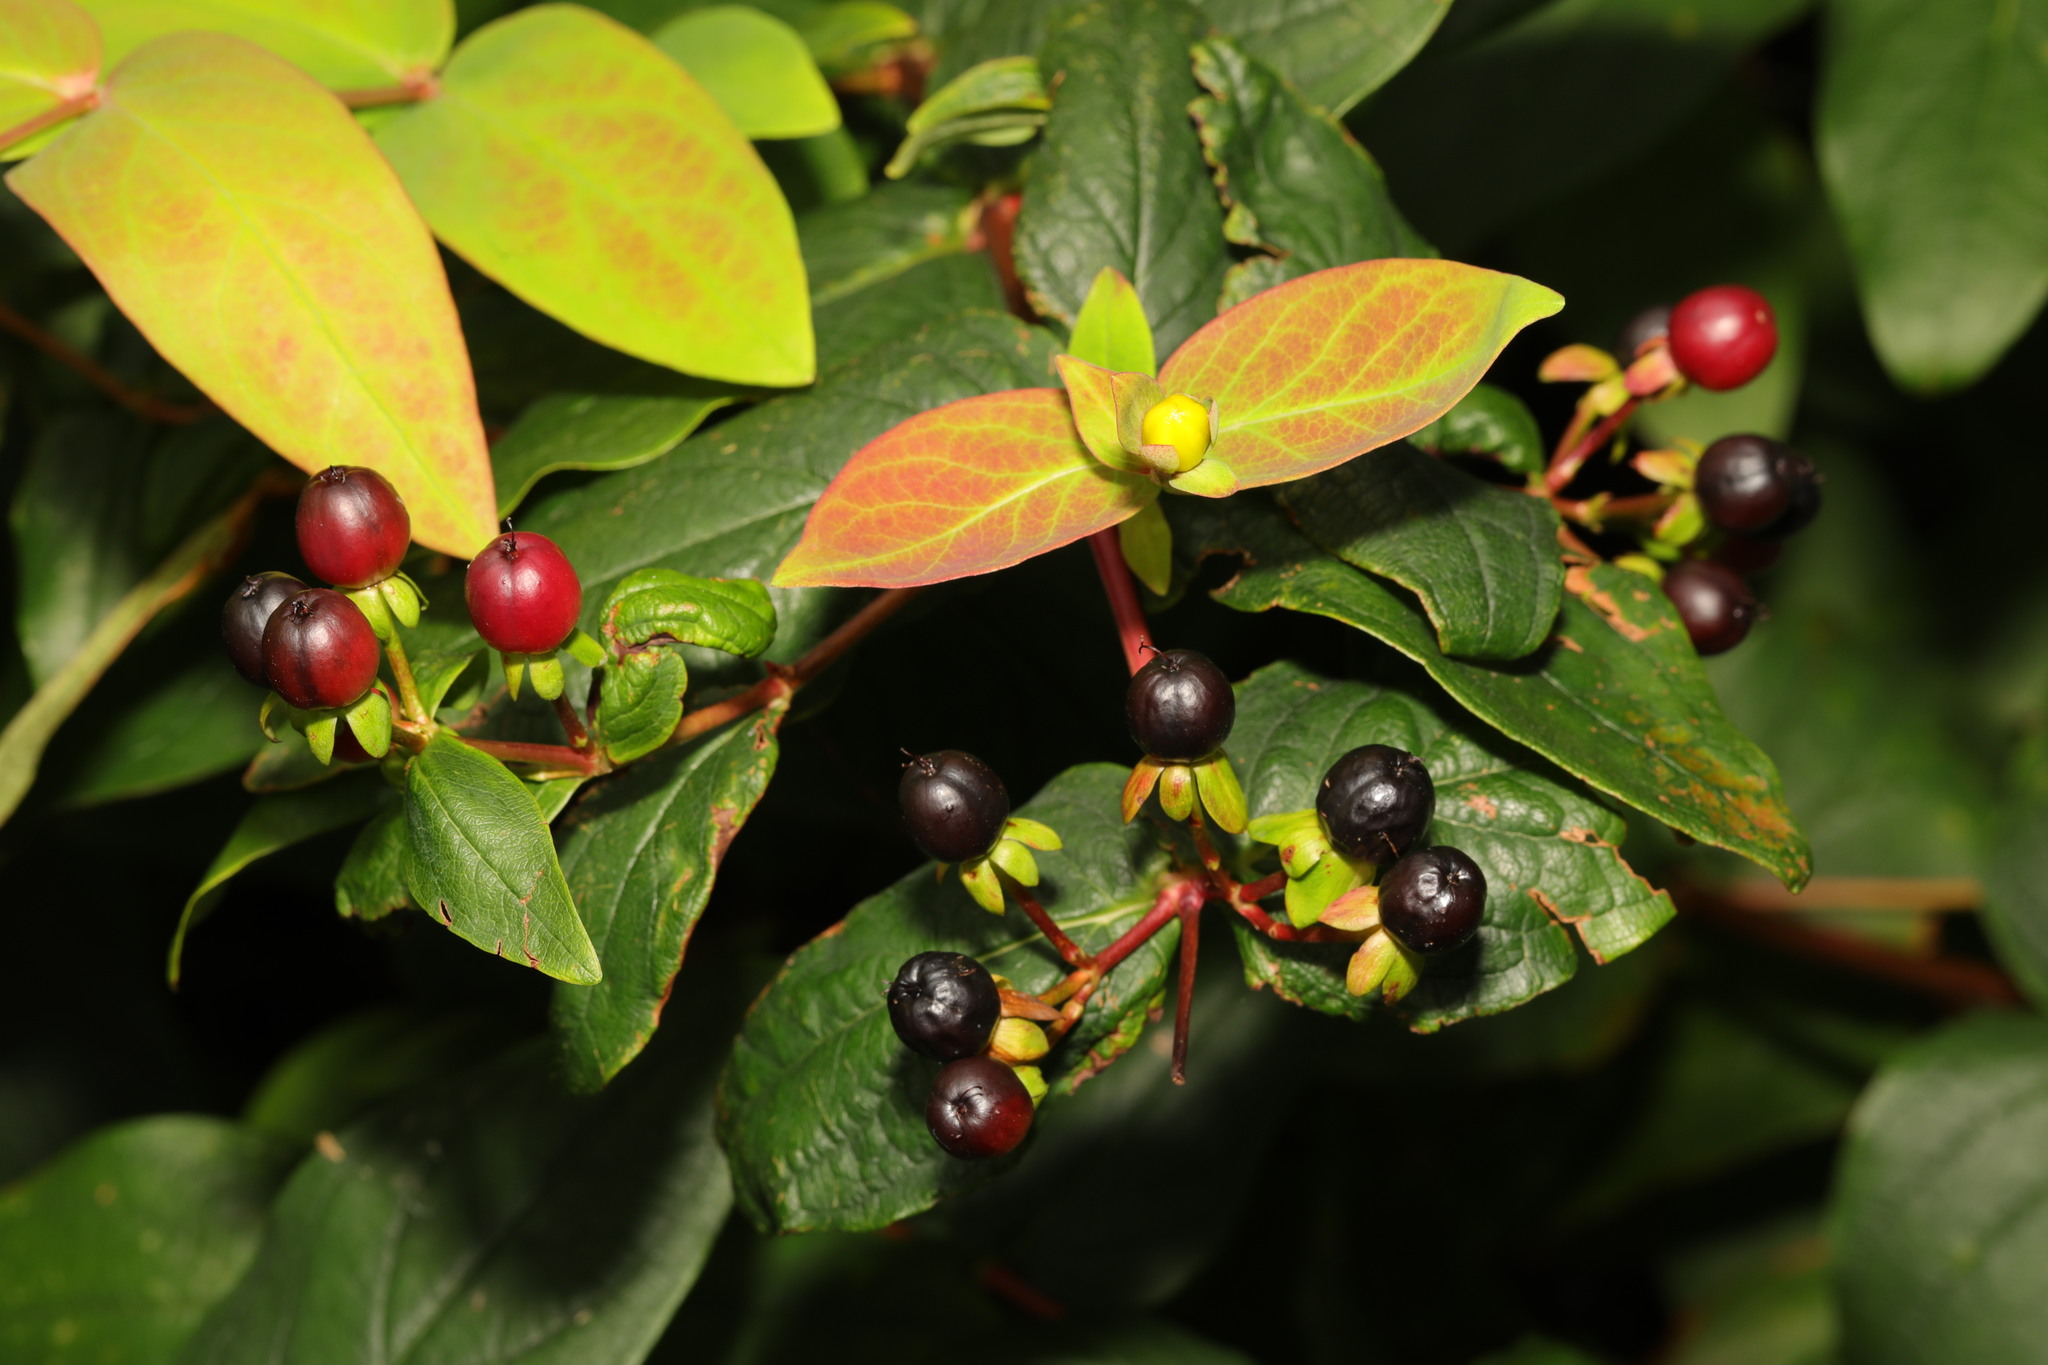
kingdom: Plantae
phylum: Tracheophyta
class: Magnoliopsida
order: Malpighiales
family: Hypericaceae
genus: Hypericum
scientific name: Hypericum androsaemum
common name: Sweet-amber
